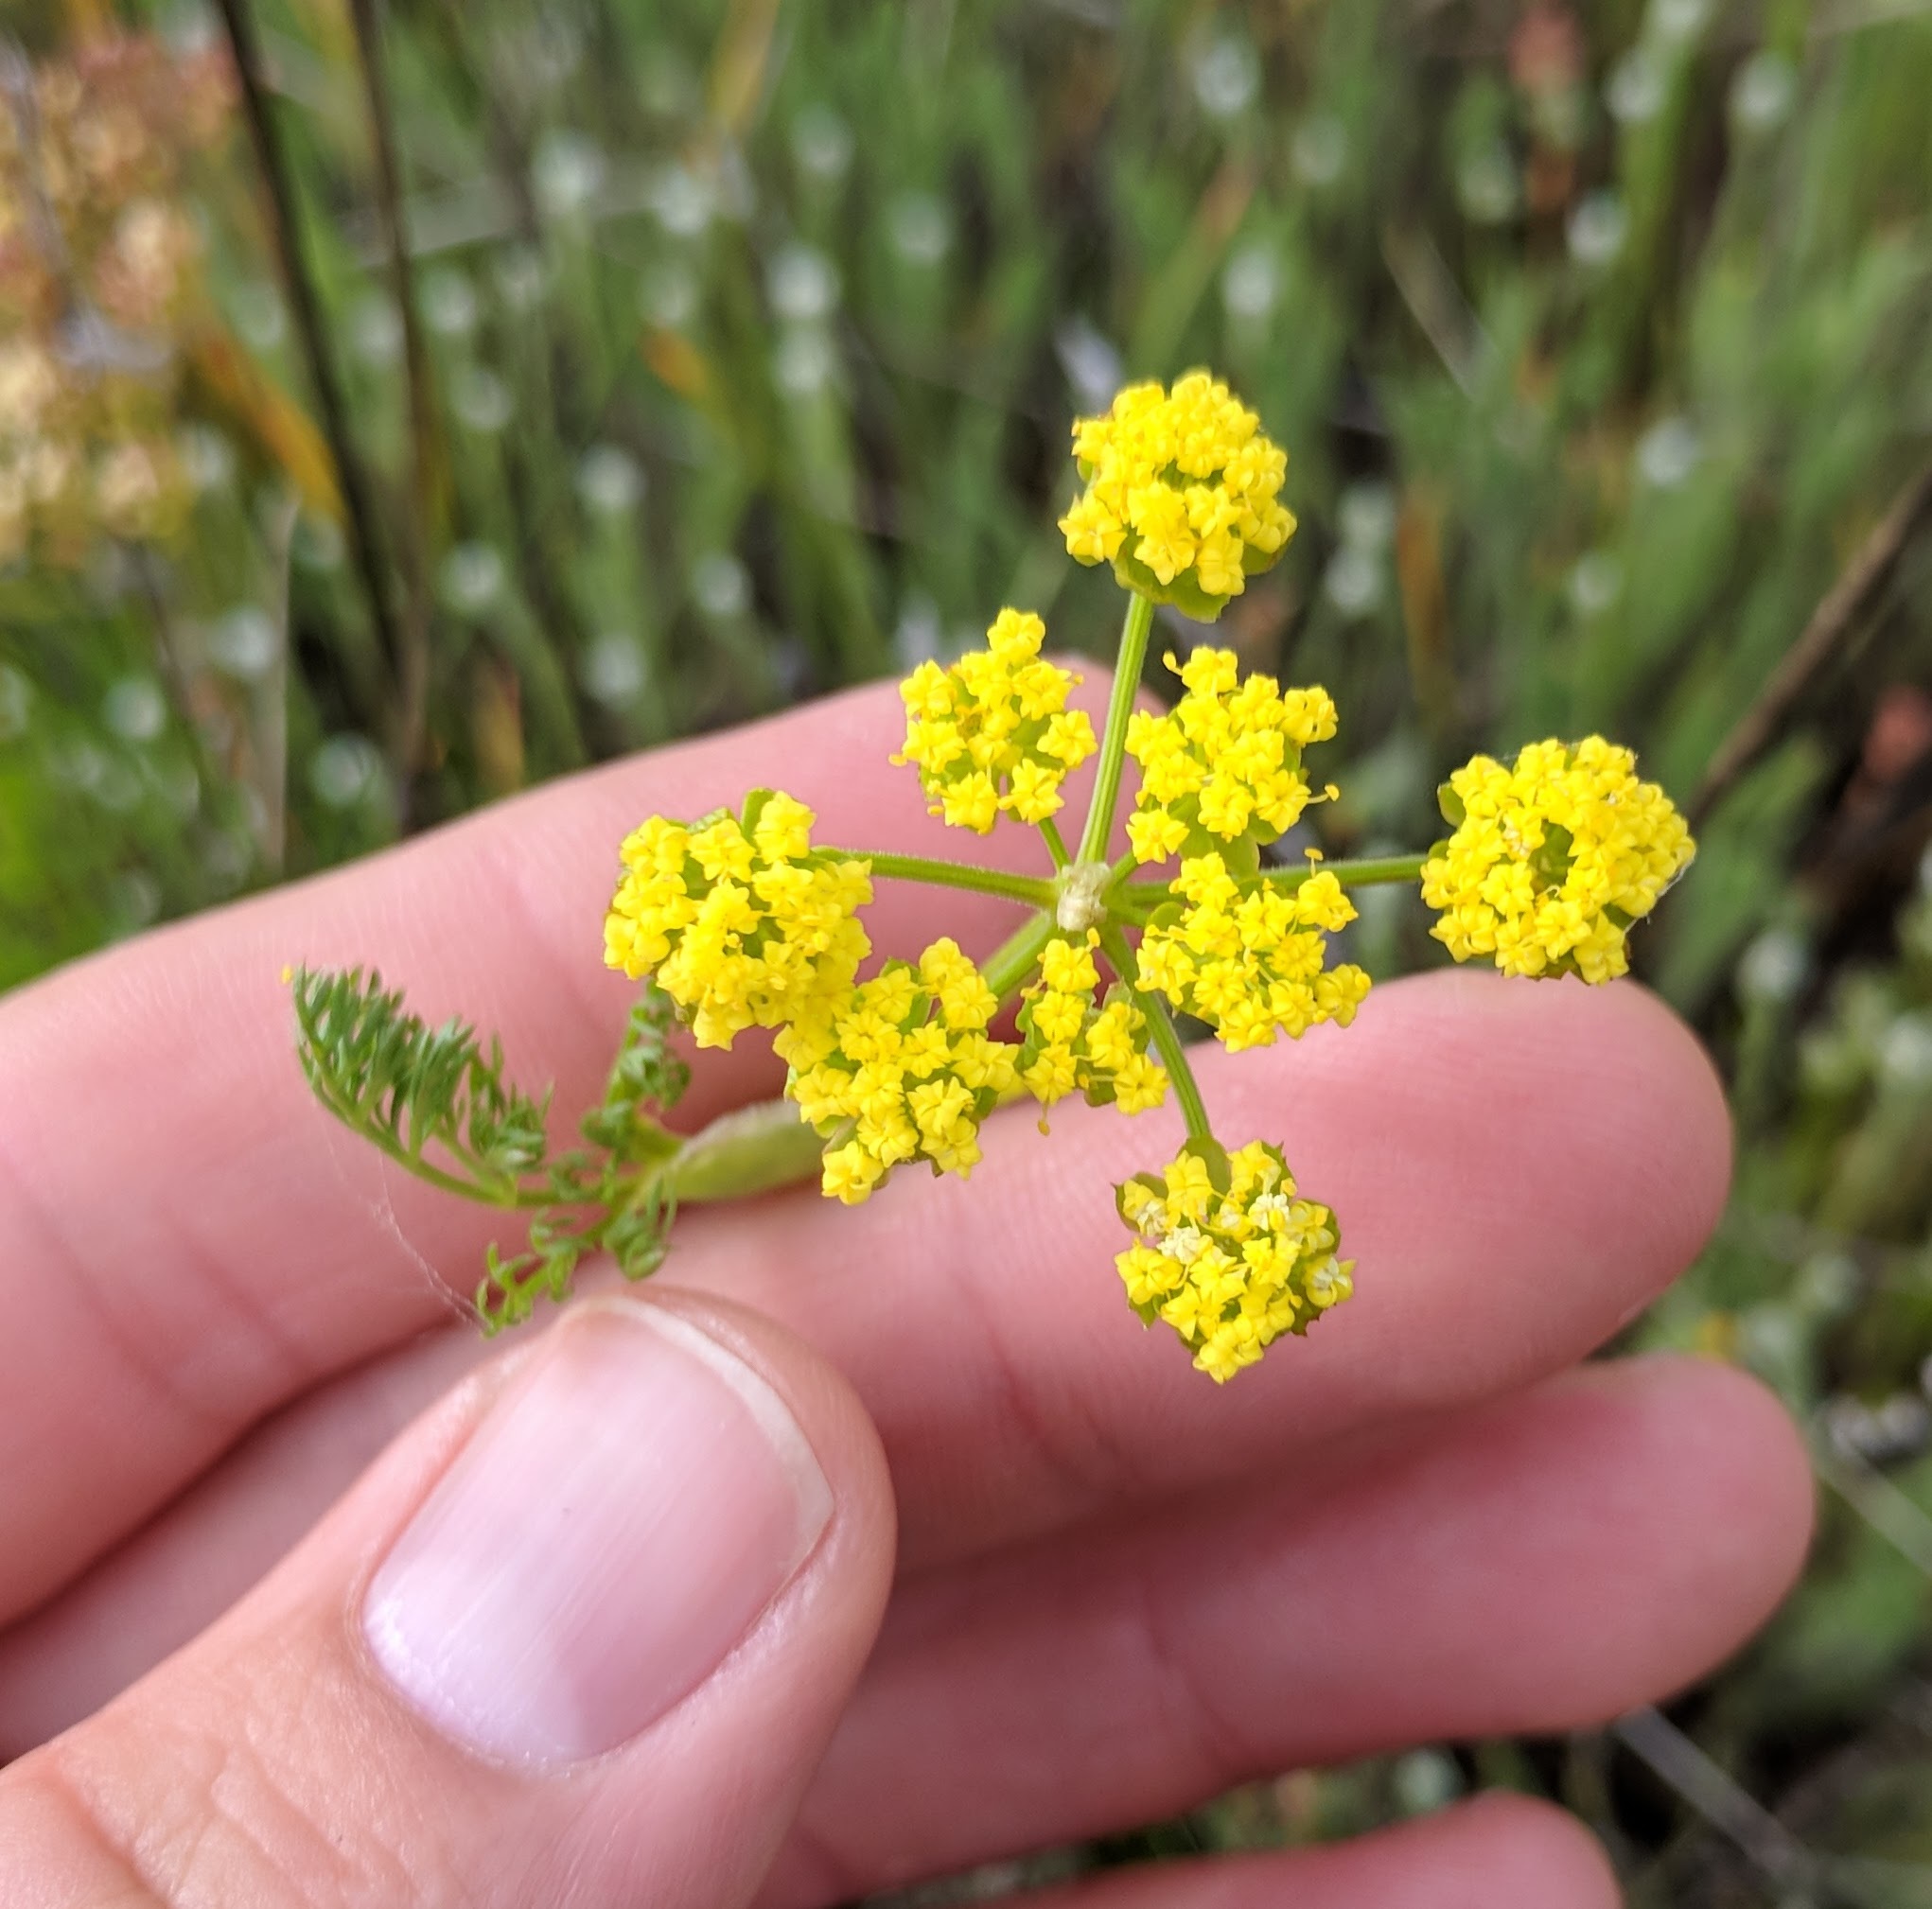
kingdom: Plantae
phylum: Tracheophyta
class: Magnoliopsida
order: Apiales
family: Apiaceae
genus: Lomatium
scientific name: Lomatium utriculatum
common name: Fine-leaf desert-parsley
